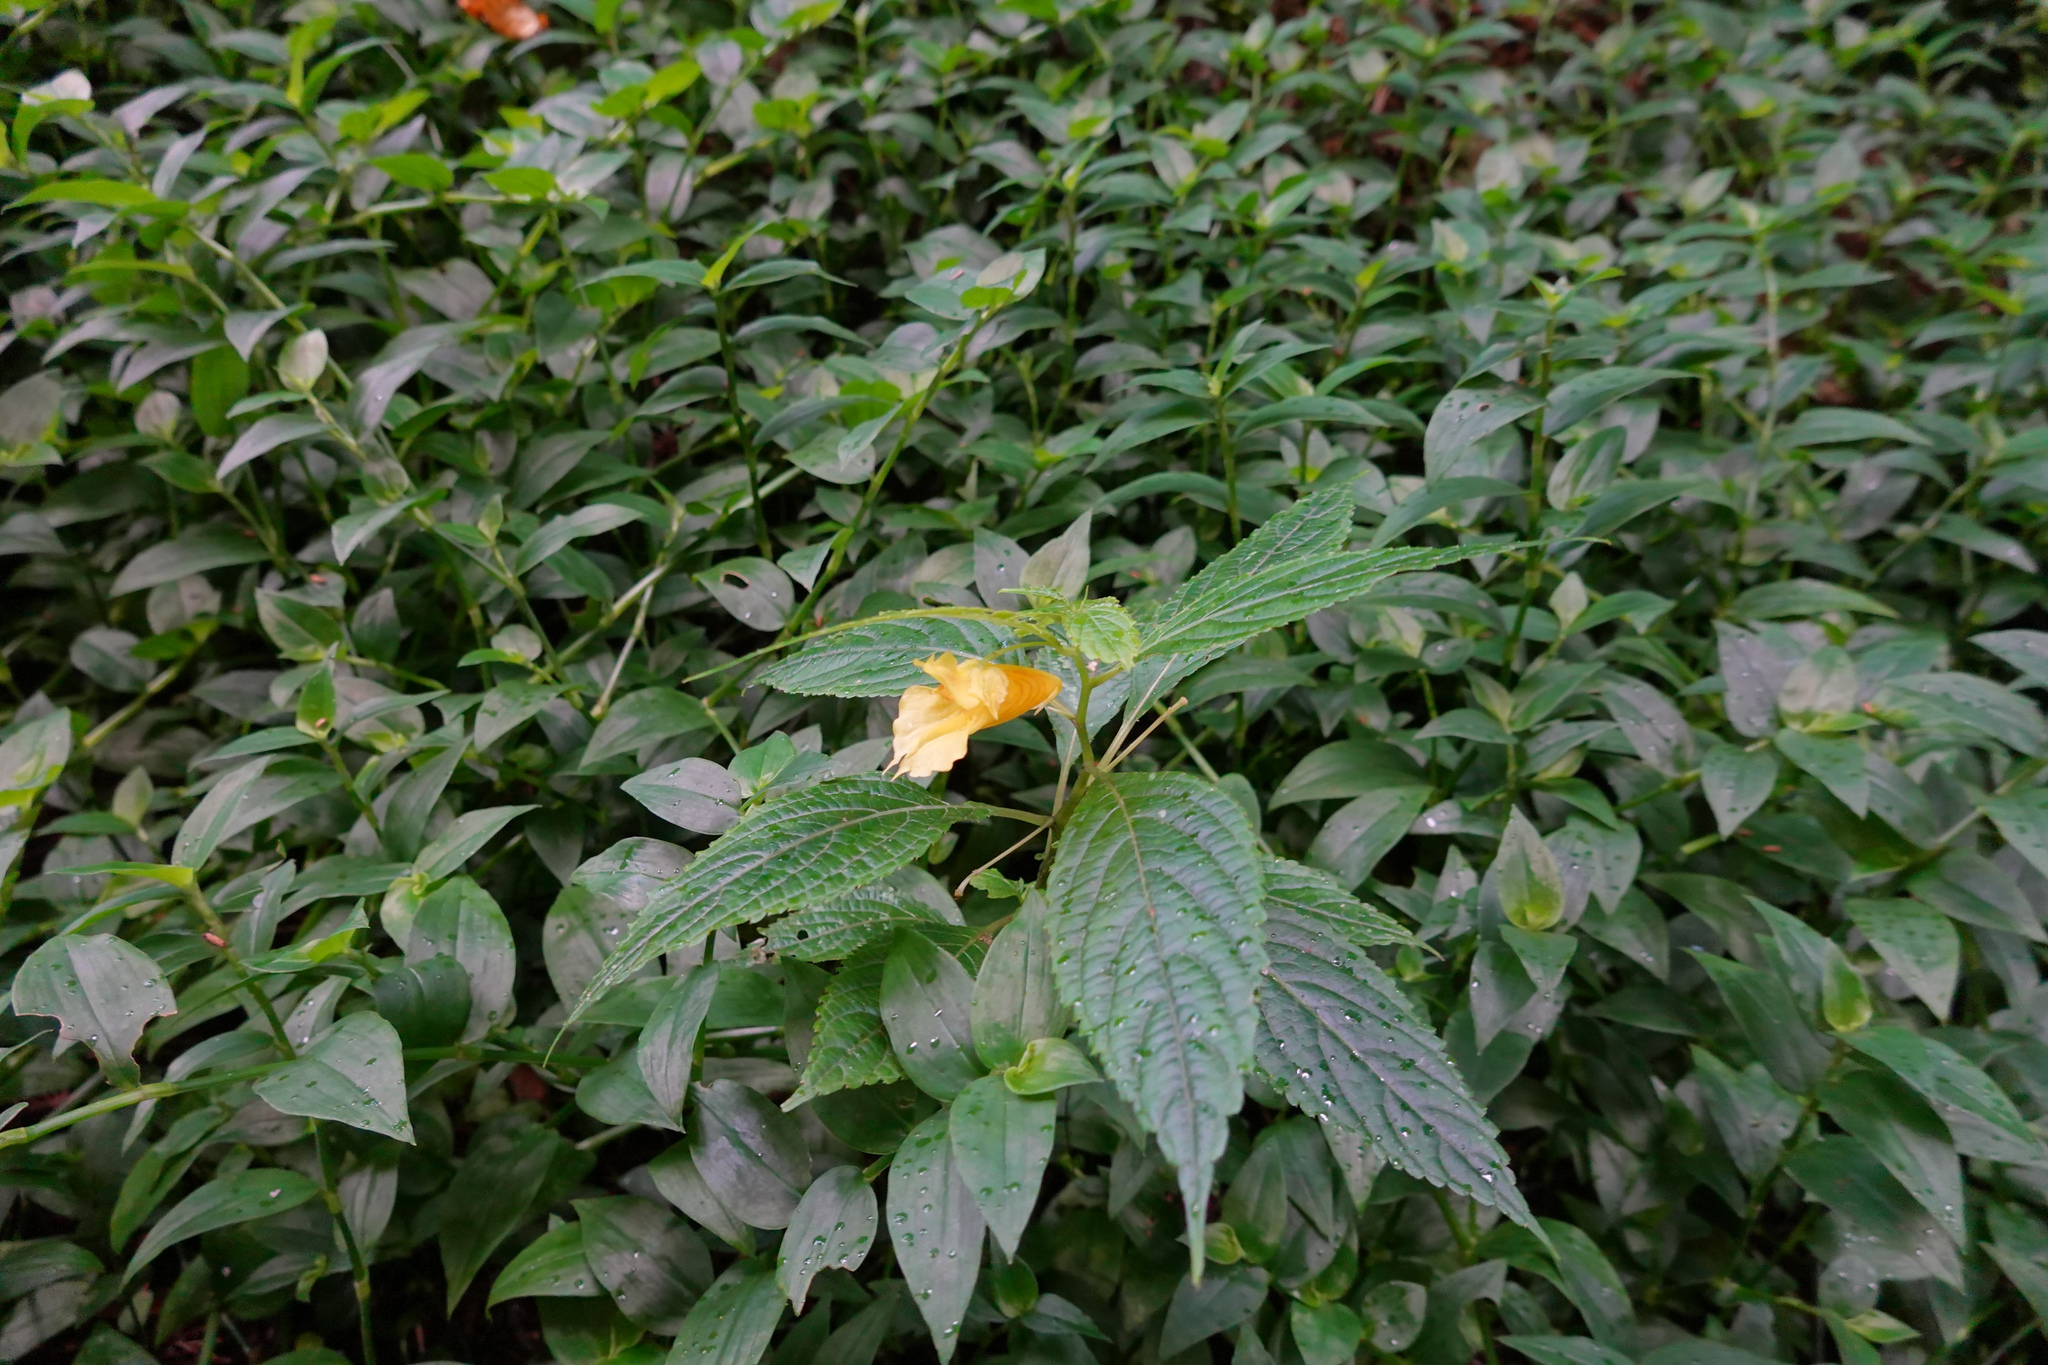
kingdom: Plantae
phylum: Tracheophyta
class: Magnoliopsida
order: Ericales
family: Balsaminaceae
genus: Impatiens
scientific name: Impatiens tayemonii
